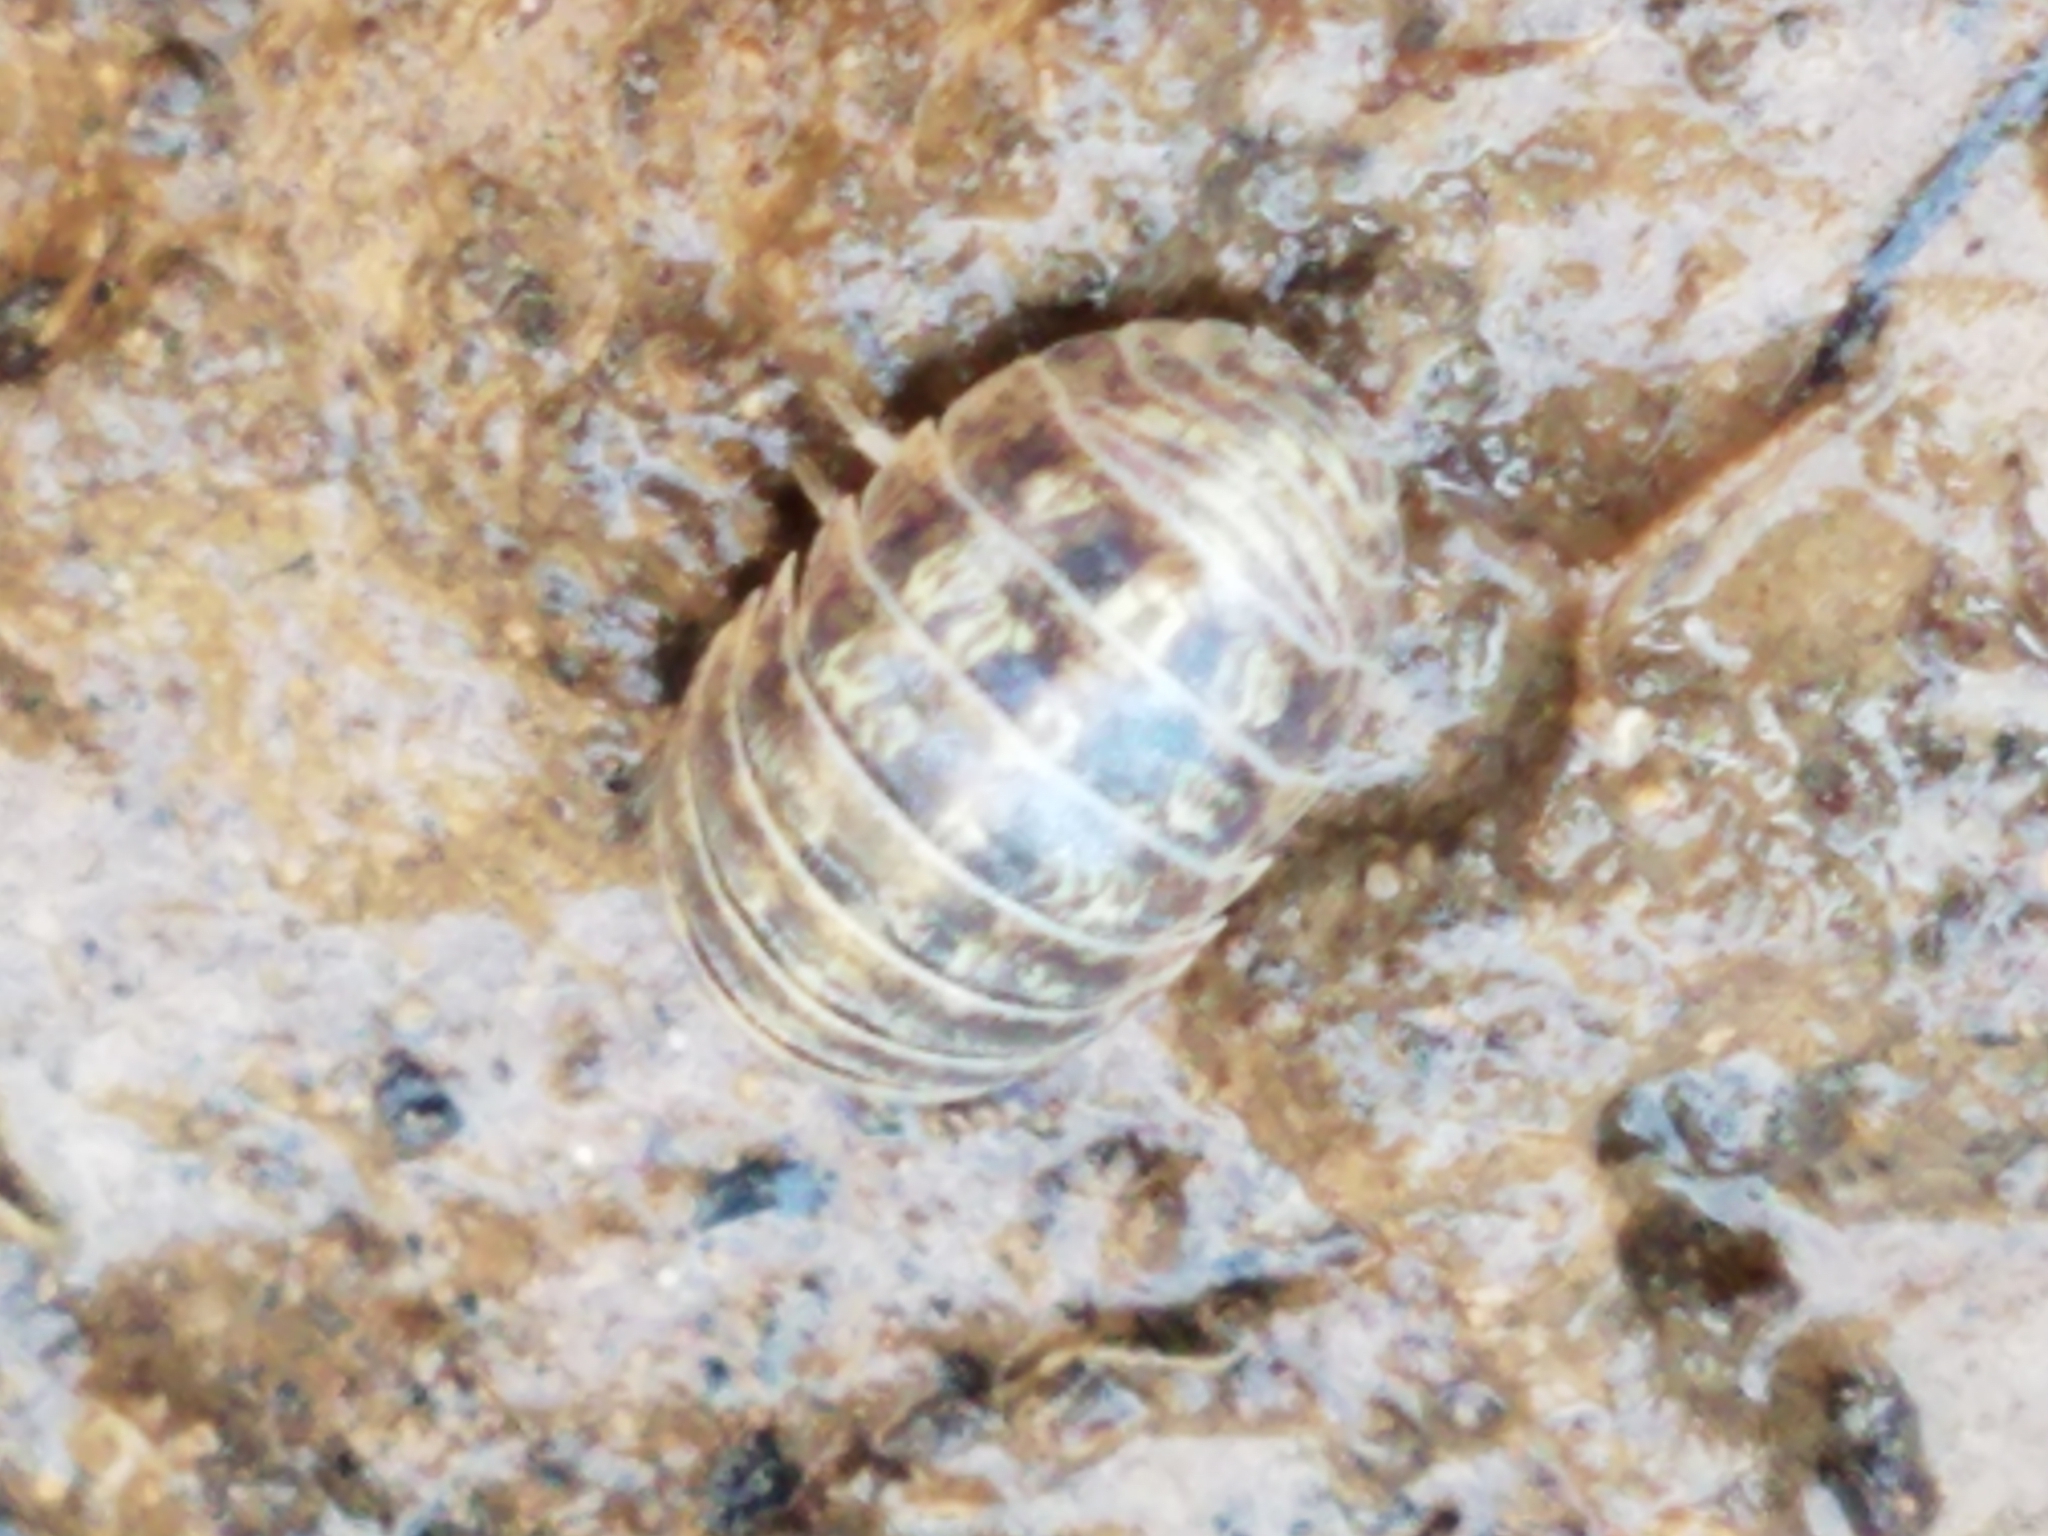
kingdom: Animalia
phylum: Arthropoda
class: Malacostraca
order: Isopoda
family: Armadillidiidae
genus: Armadillidium
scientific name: Armadillidium vulgare
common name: Common pill woodlouse
